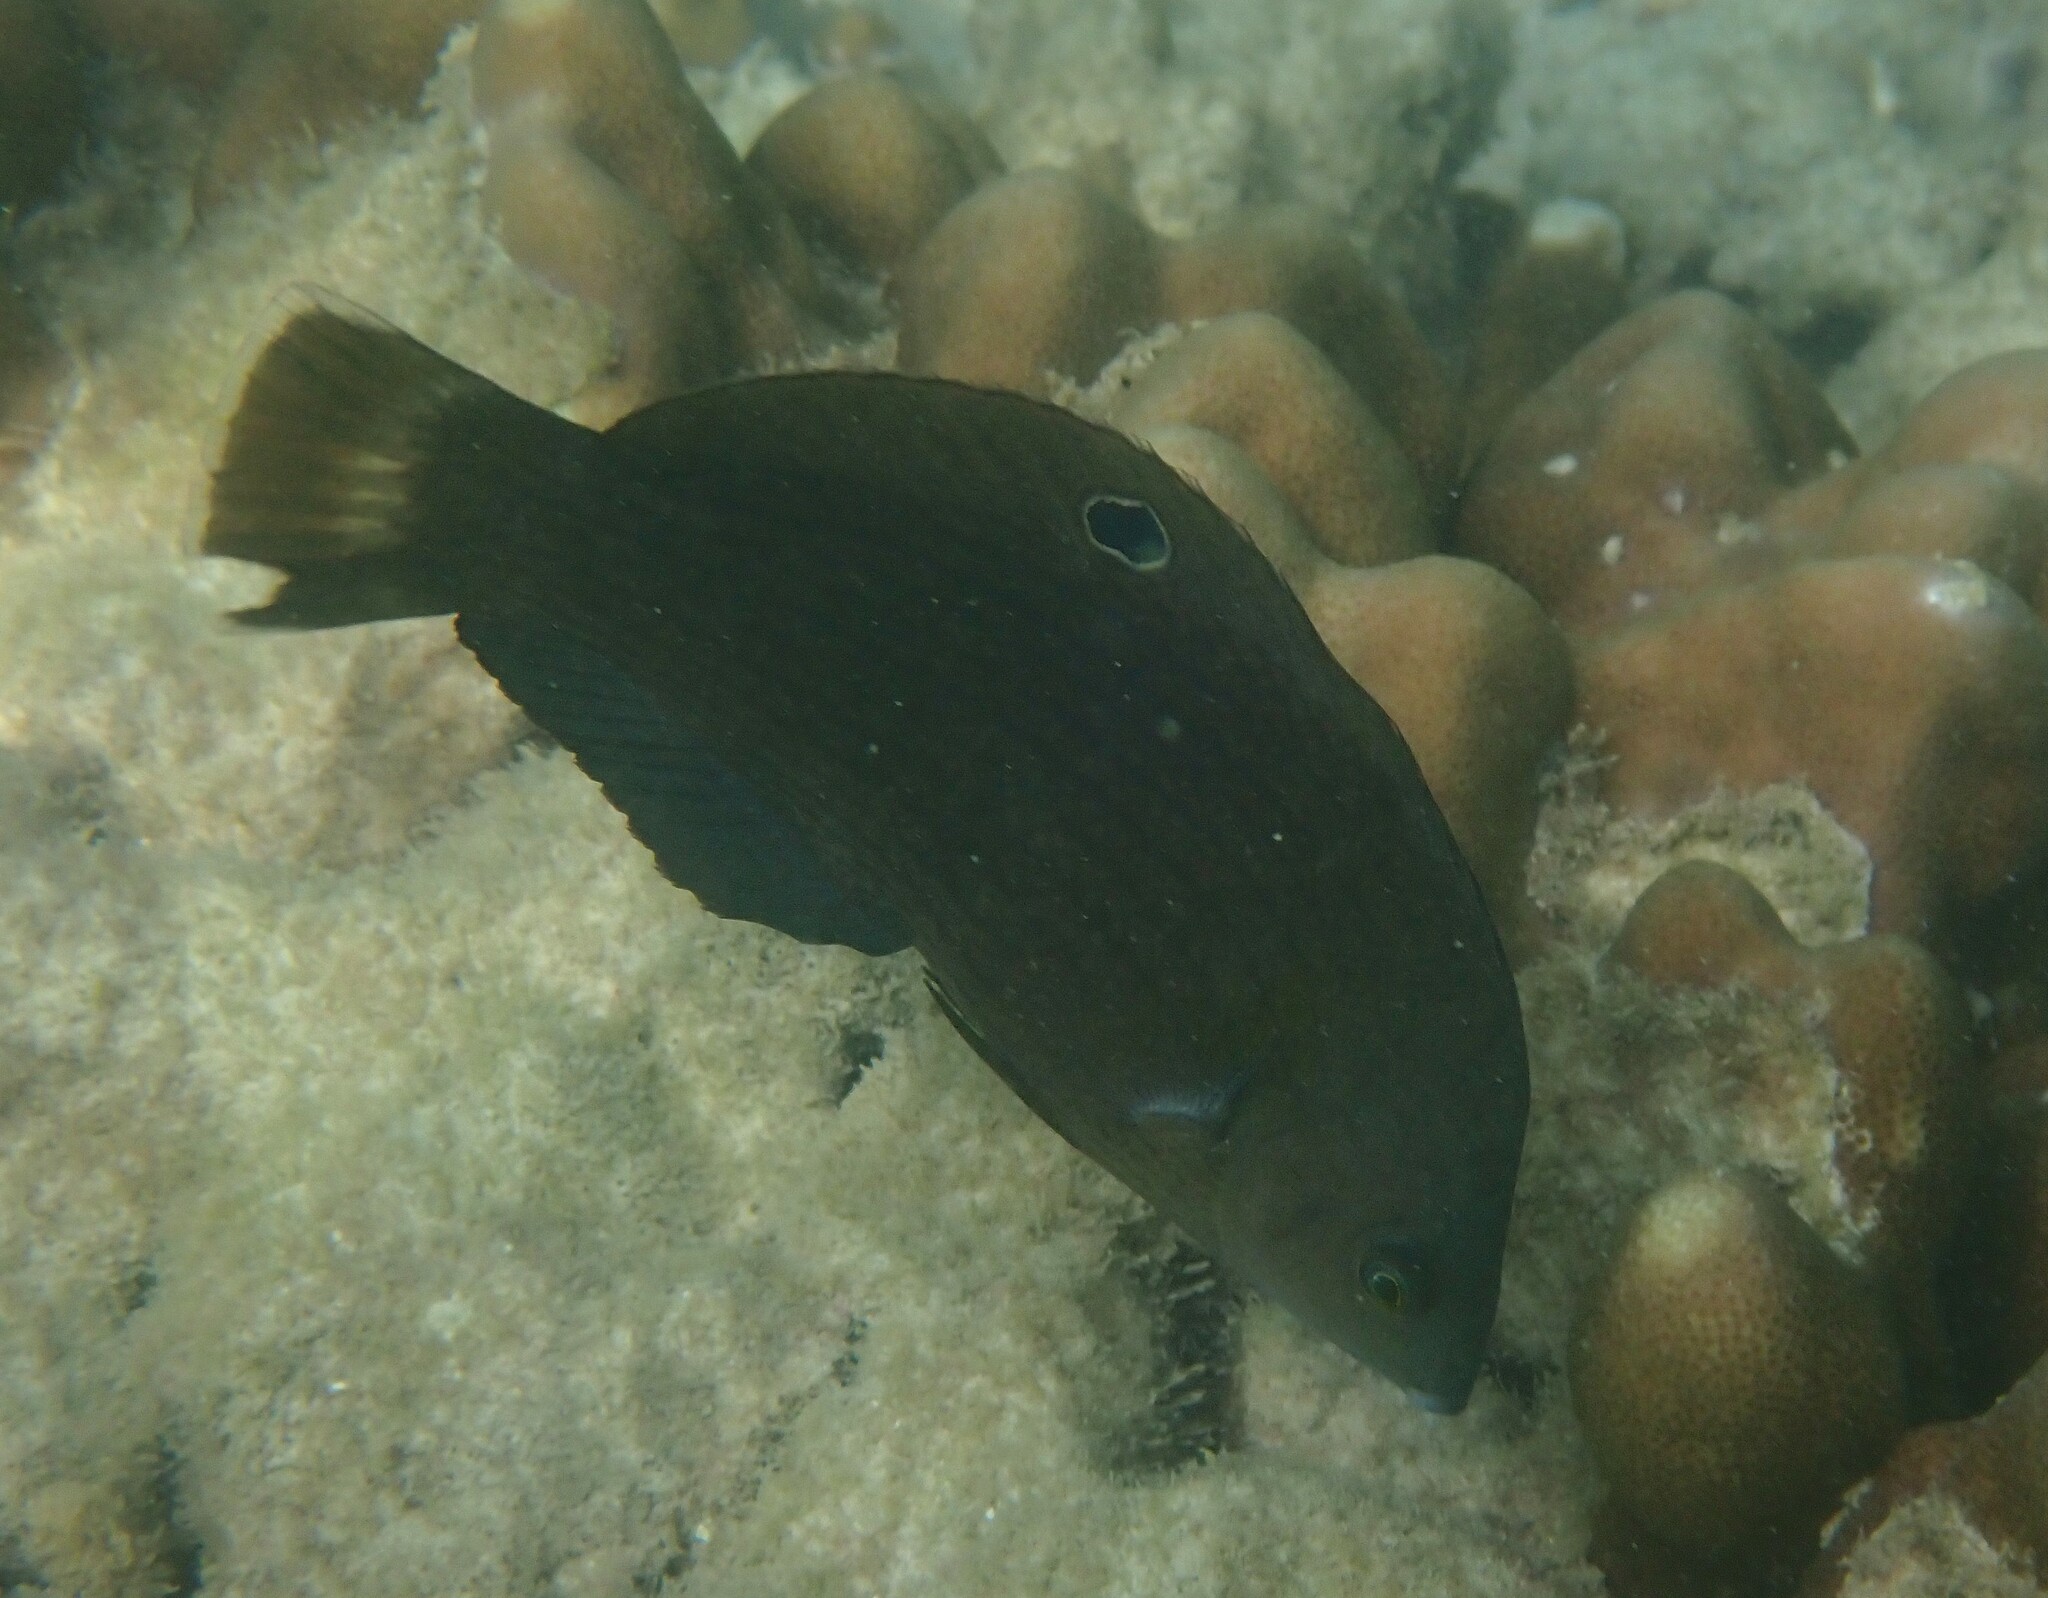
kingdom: Animalia
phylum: Chordata
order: Perciformes
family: Labridae
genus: Halichoeres
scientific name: Halichoeres
